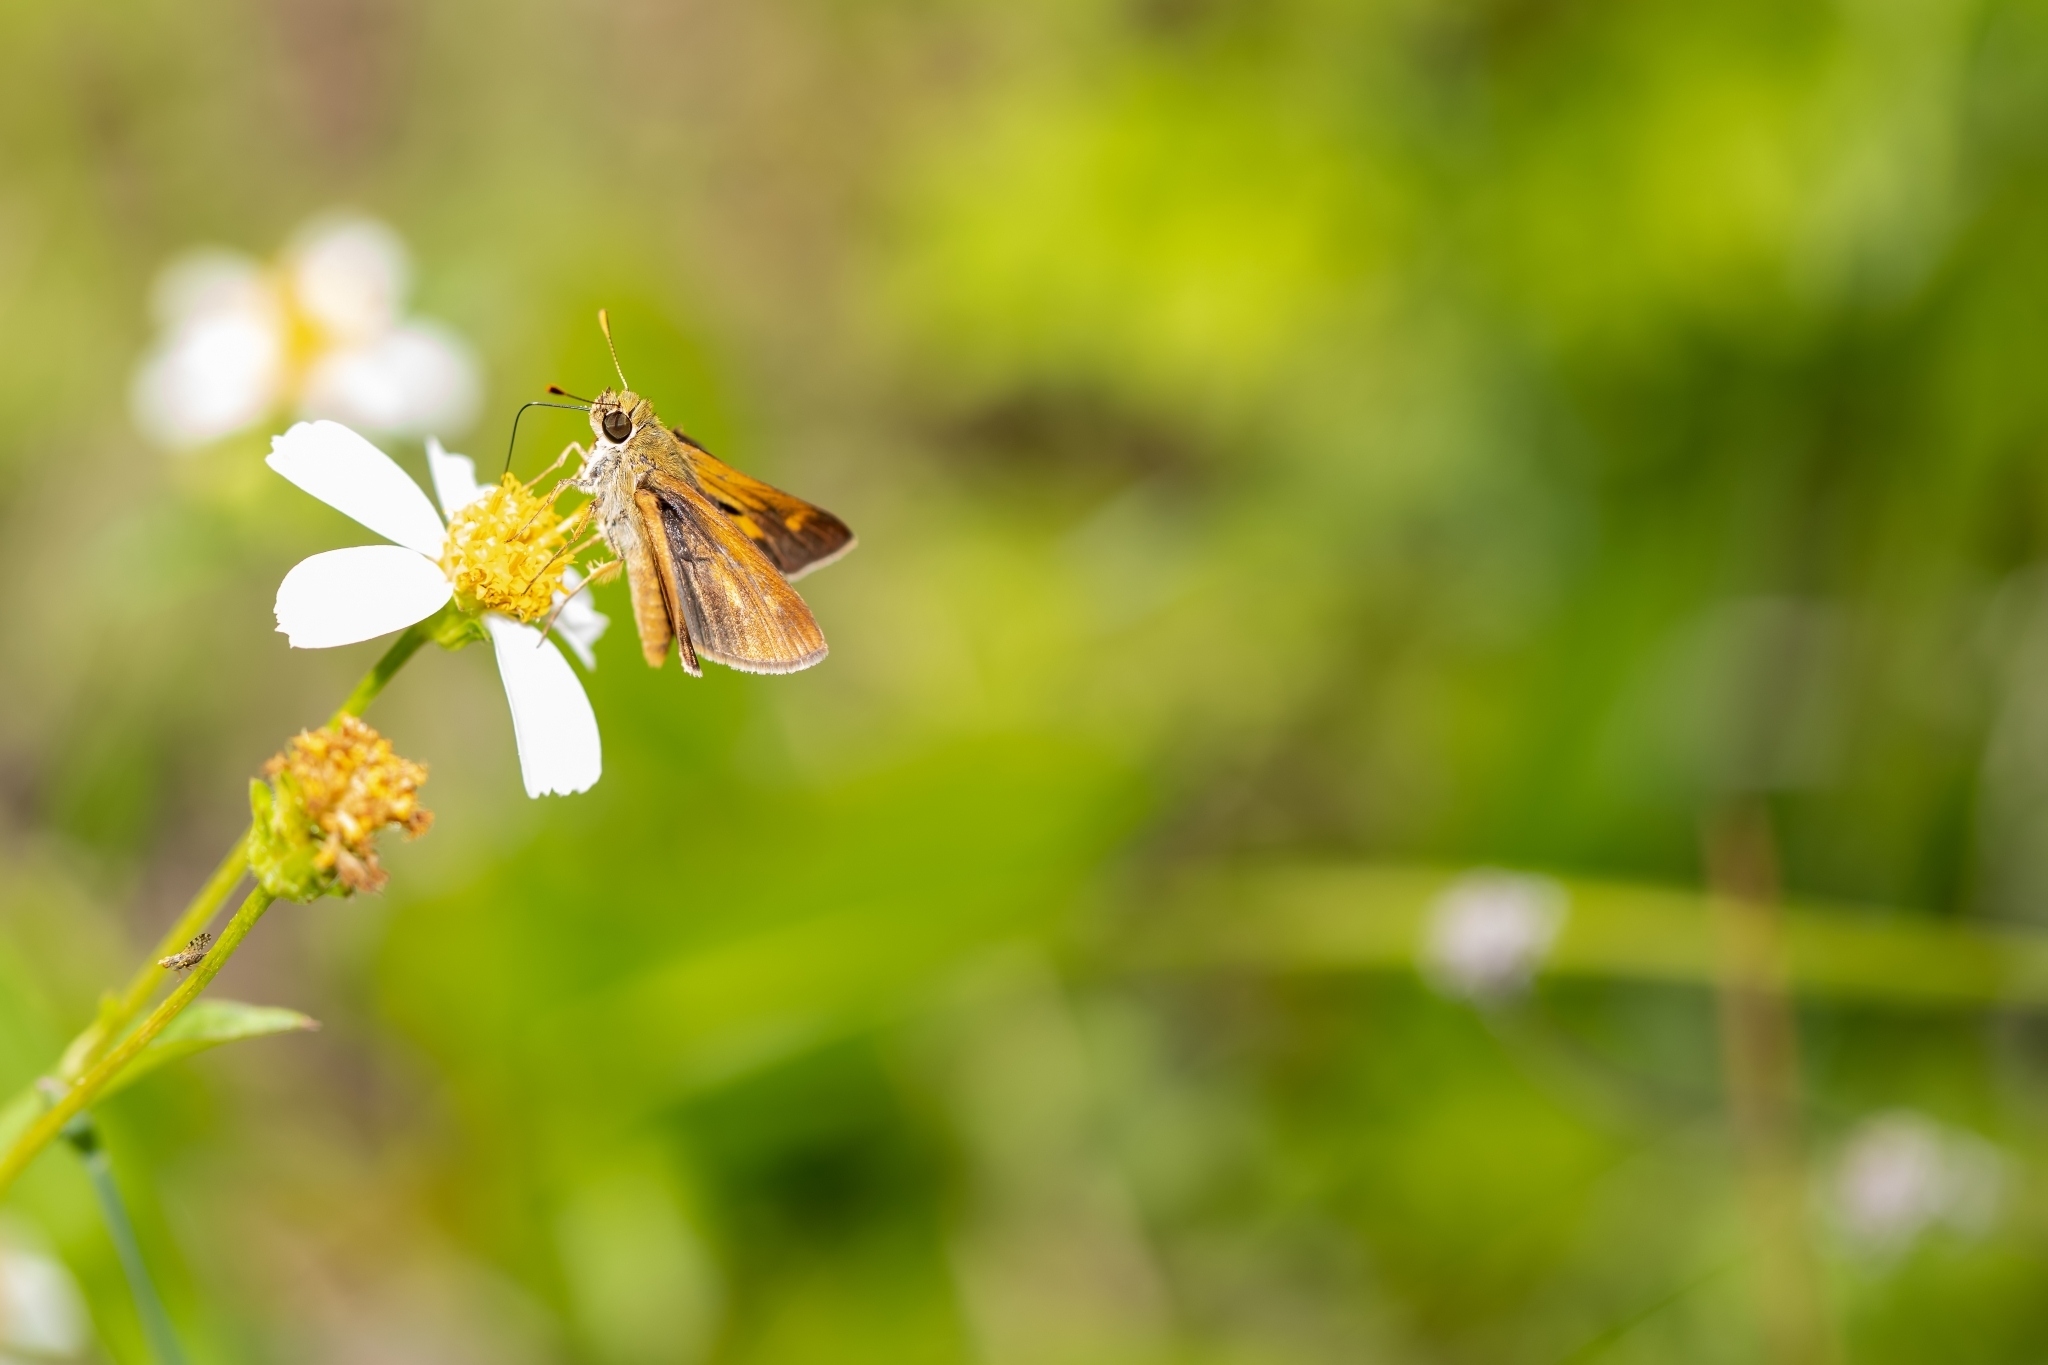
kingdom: Animalia
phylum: Arthropoda
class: Insecta
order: Lepidoptera
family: Hesperiidae
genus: Polites
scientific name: Polites otho
